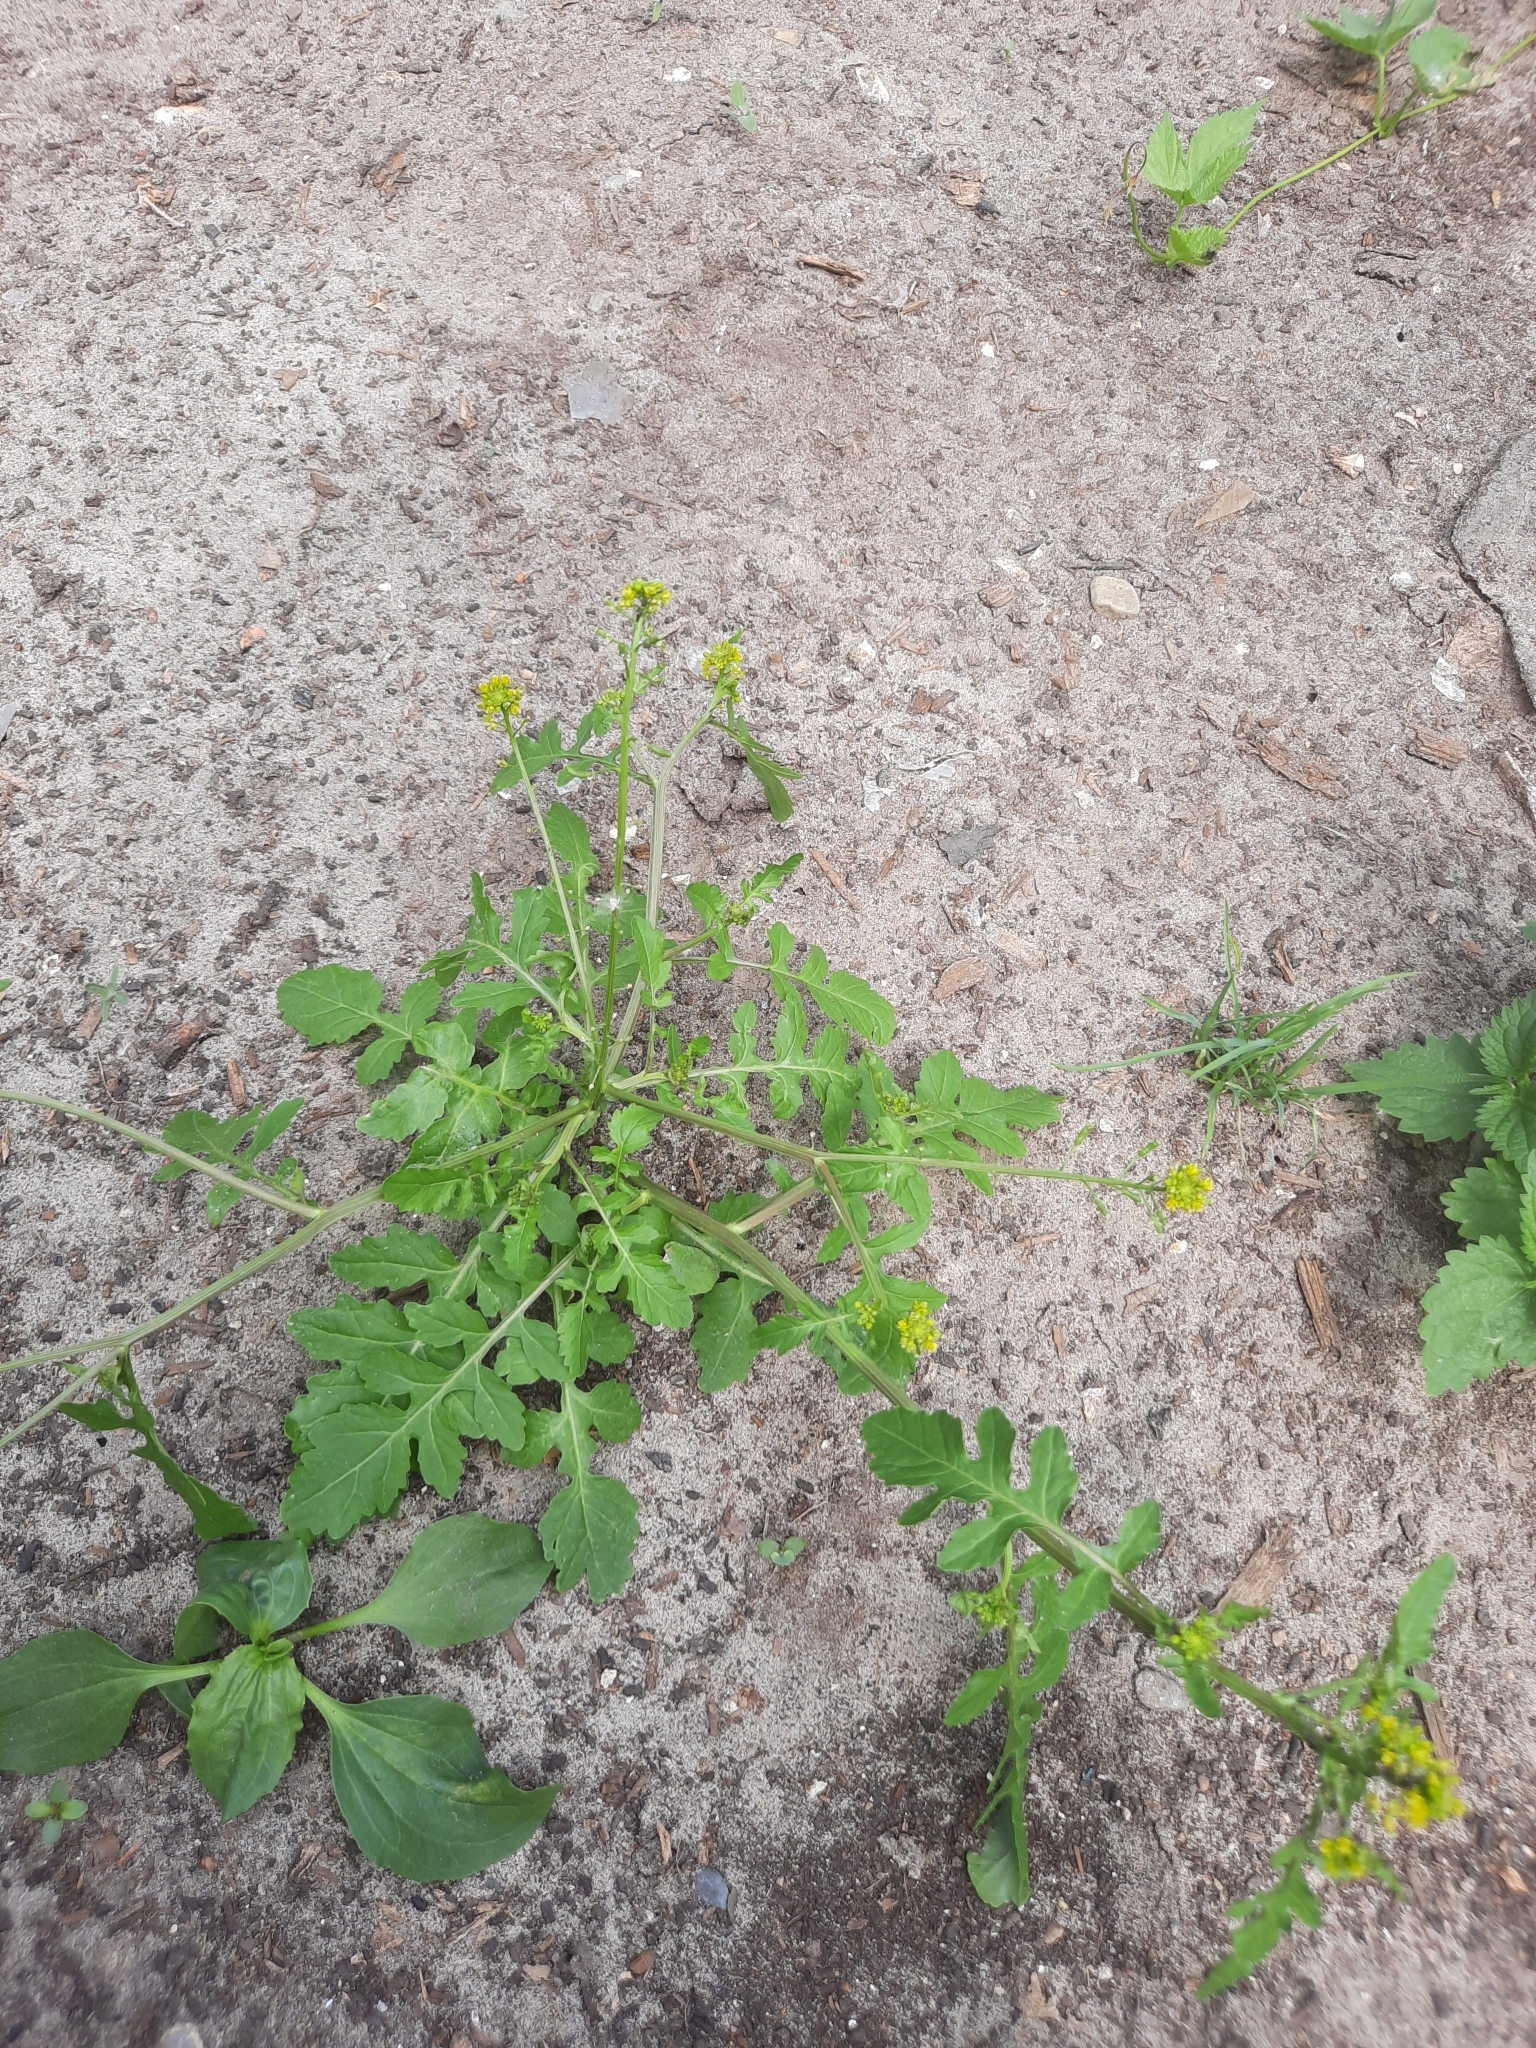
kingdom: Plantae
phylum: Tracheophyta
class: Magnoliopsida
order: Brassicales
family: Brassicaceae
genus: Rorippa
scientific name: Rorippa palustris
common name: Marsh yellow-cress
